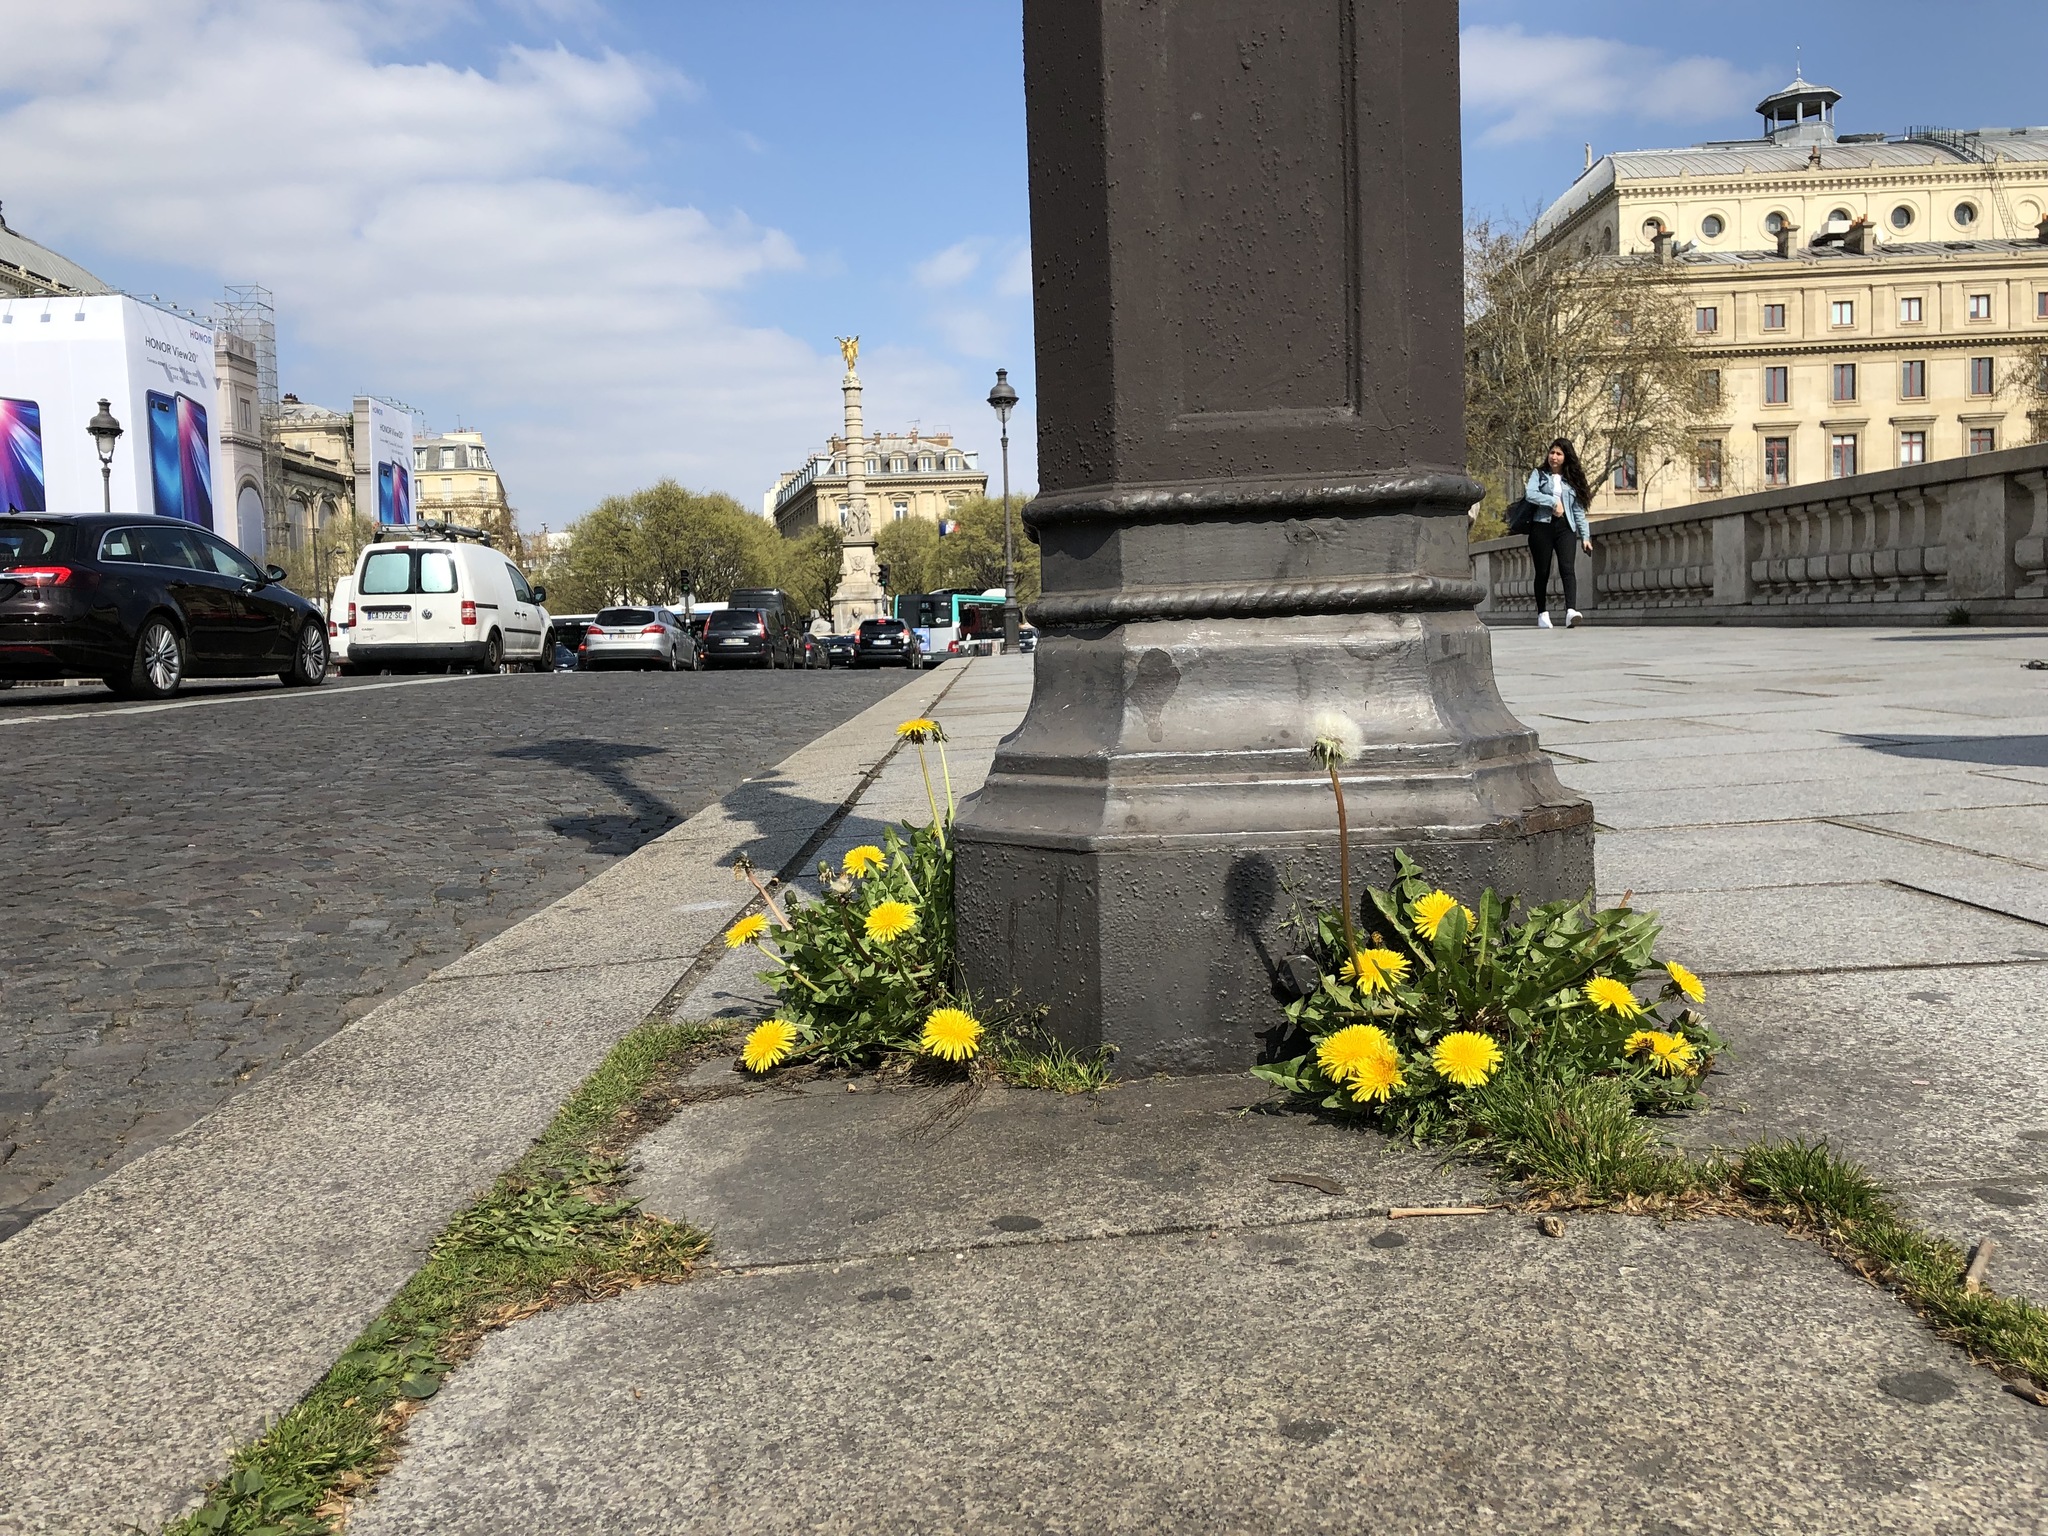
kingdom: Plantae
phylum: Tracheophyta
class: Magnoliopsida
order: Asterales
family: Asteraceae
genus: Taraxacum
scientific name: Taraxacum officinale
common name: Common dandelion
